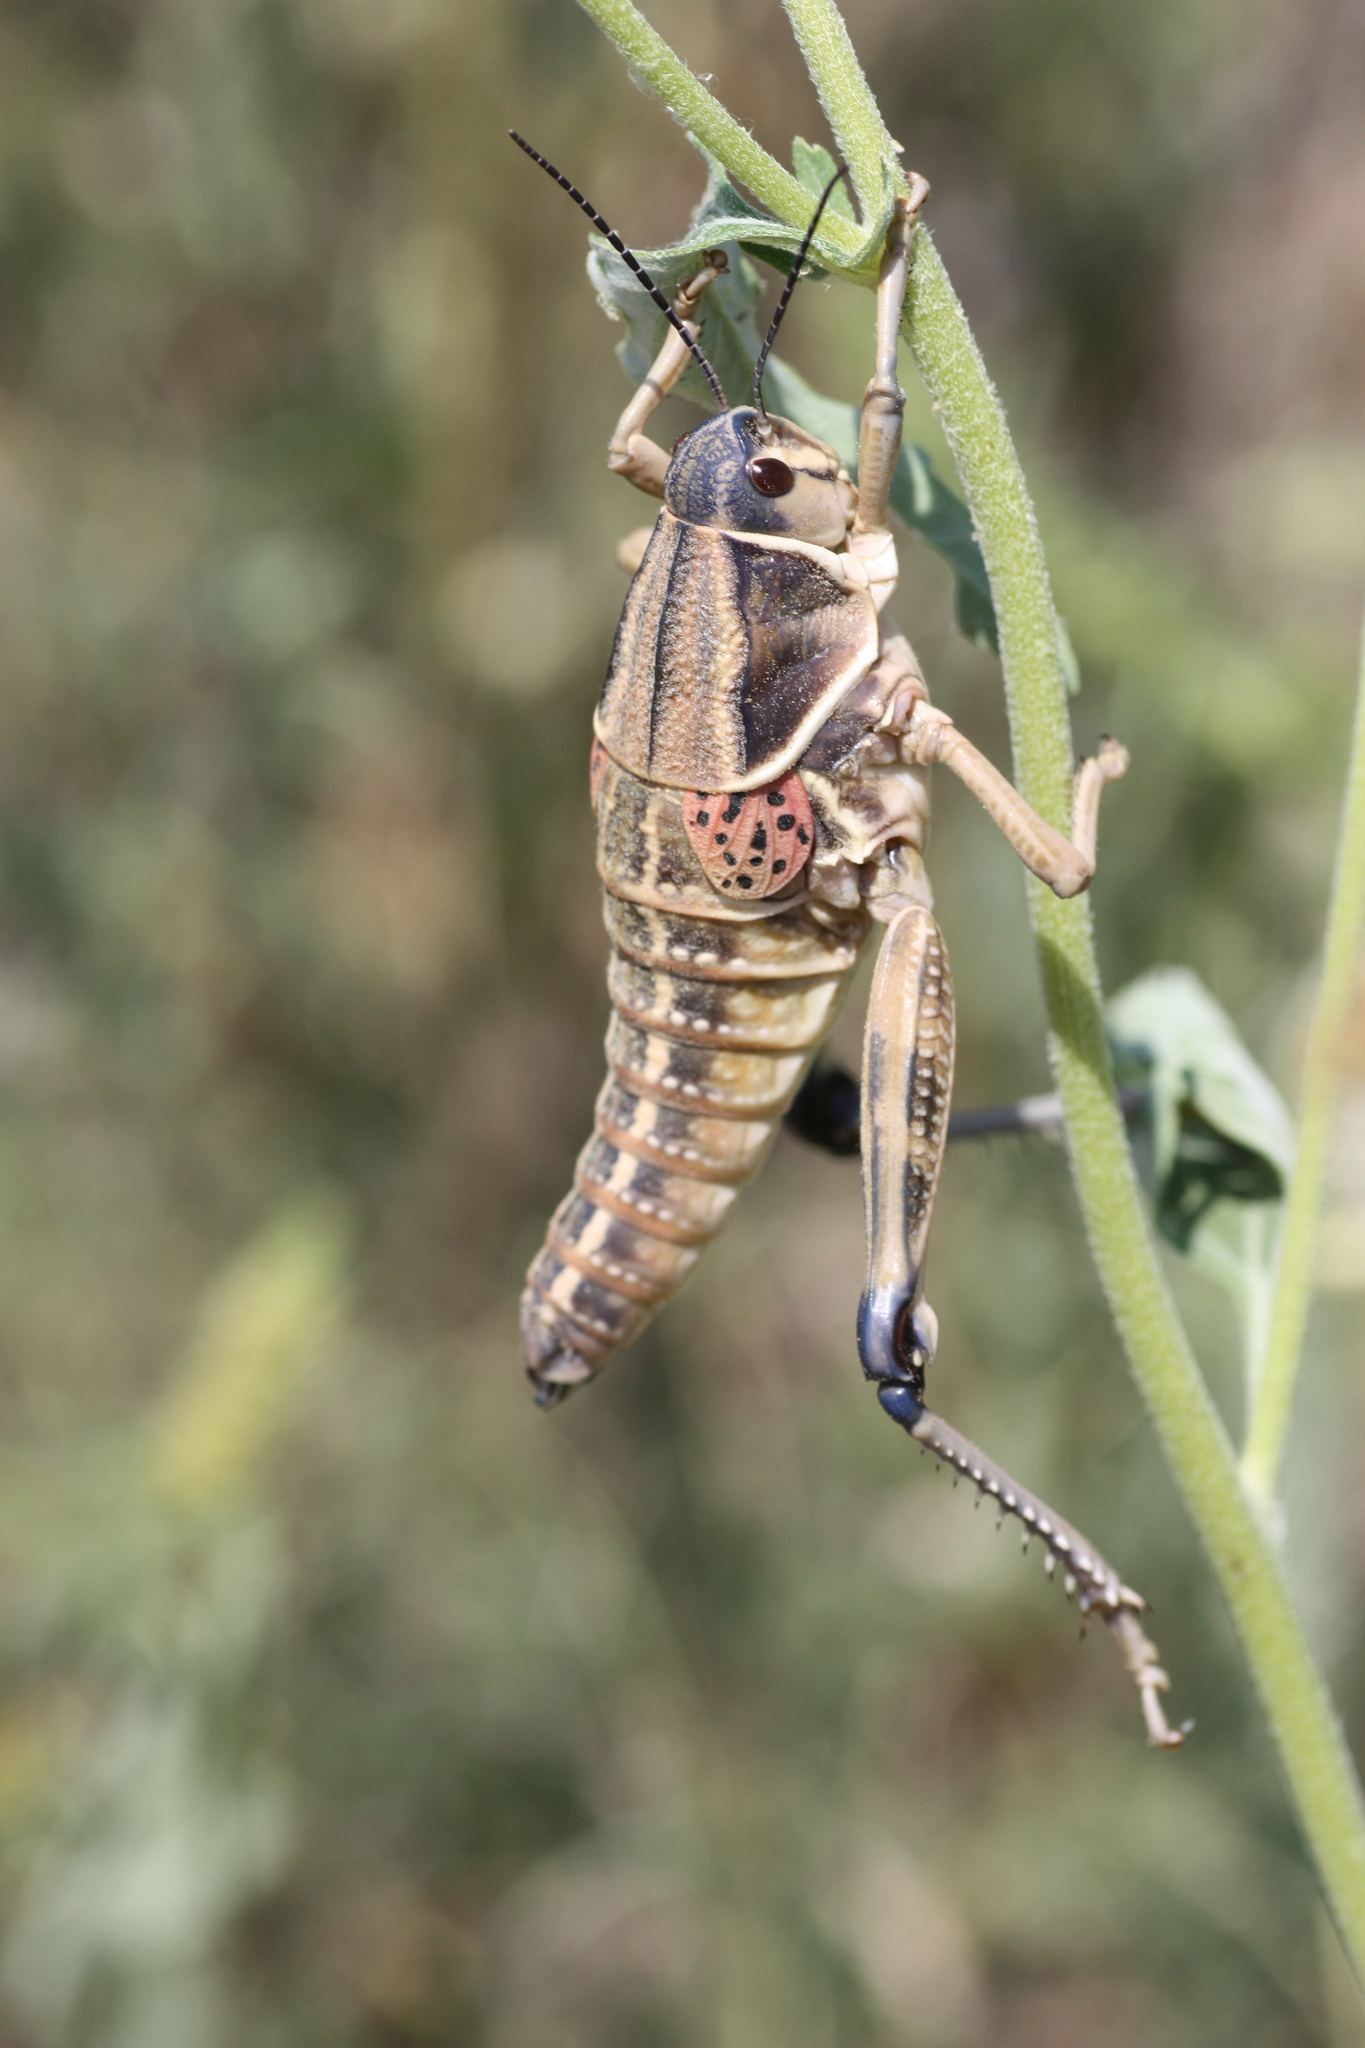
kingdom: Animalia
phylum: Arthropoda
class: Insecta
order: Orthoptera
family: Romaleidae
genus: Brachystola
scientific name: Brachystola magna
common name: Plains lubber grasshopper
